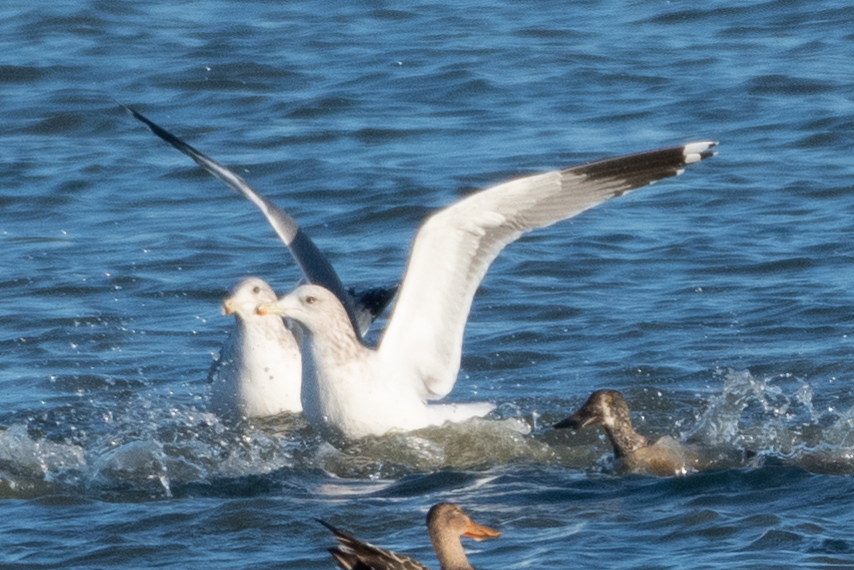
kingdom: Animalia
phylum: Chordata
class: Aves
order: Charadriiformes
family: Laridae
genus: Larus
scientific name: Larus californicus
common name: California gull
